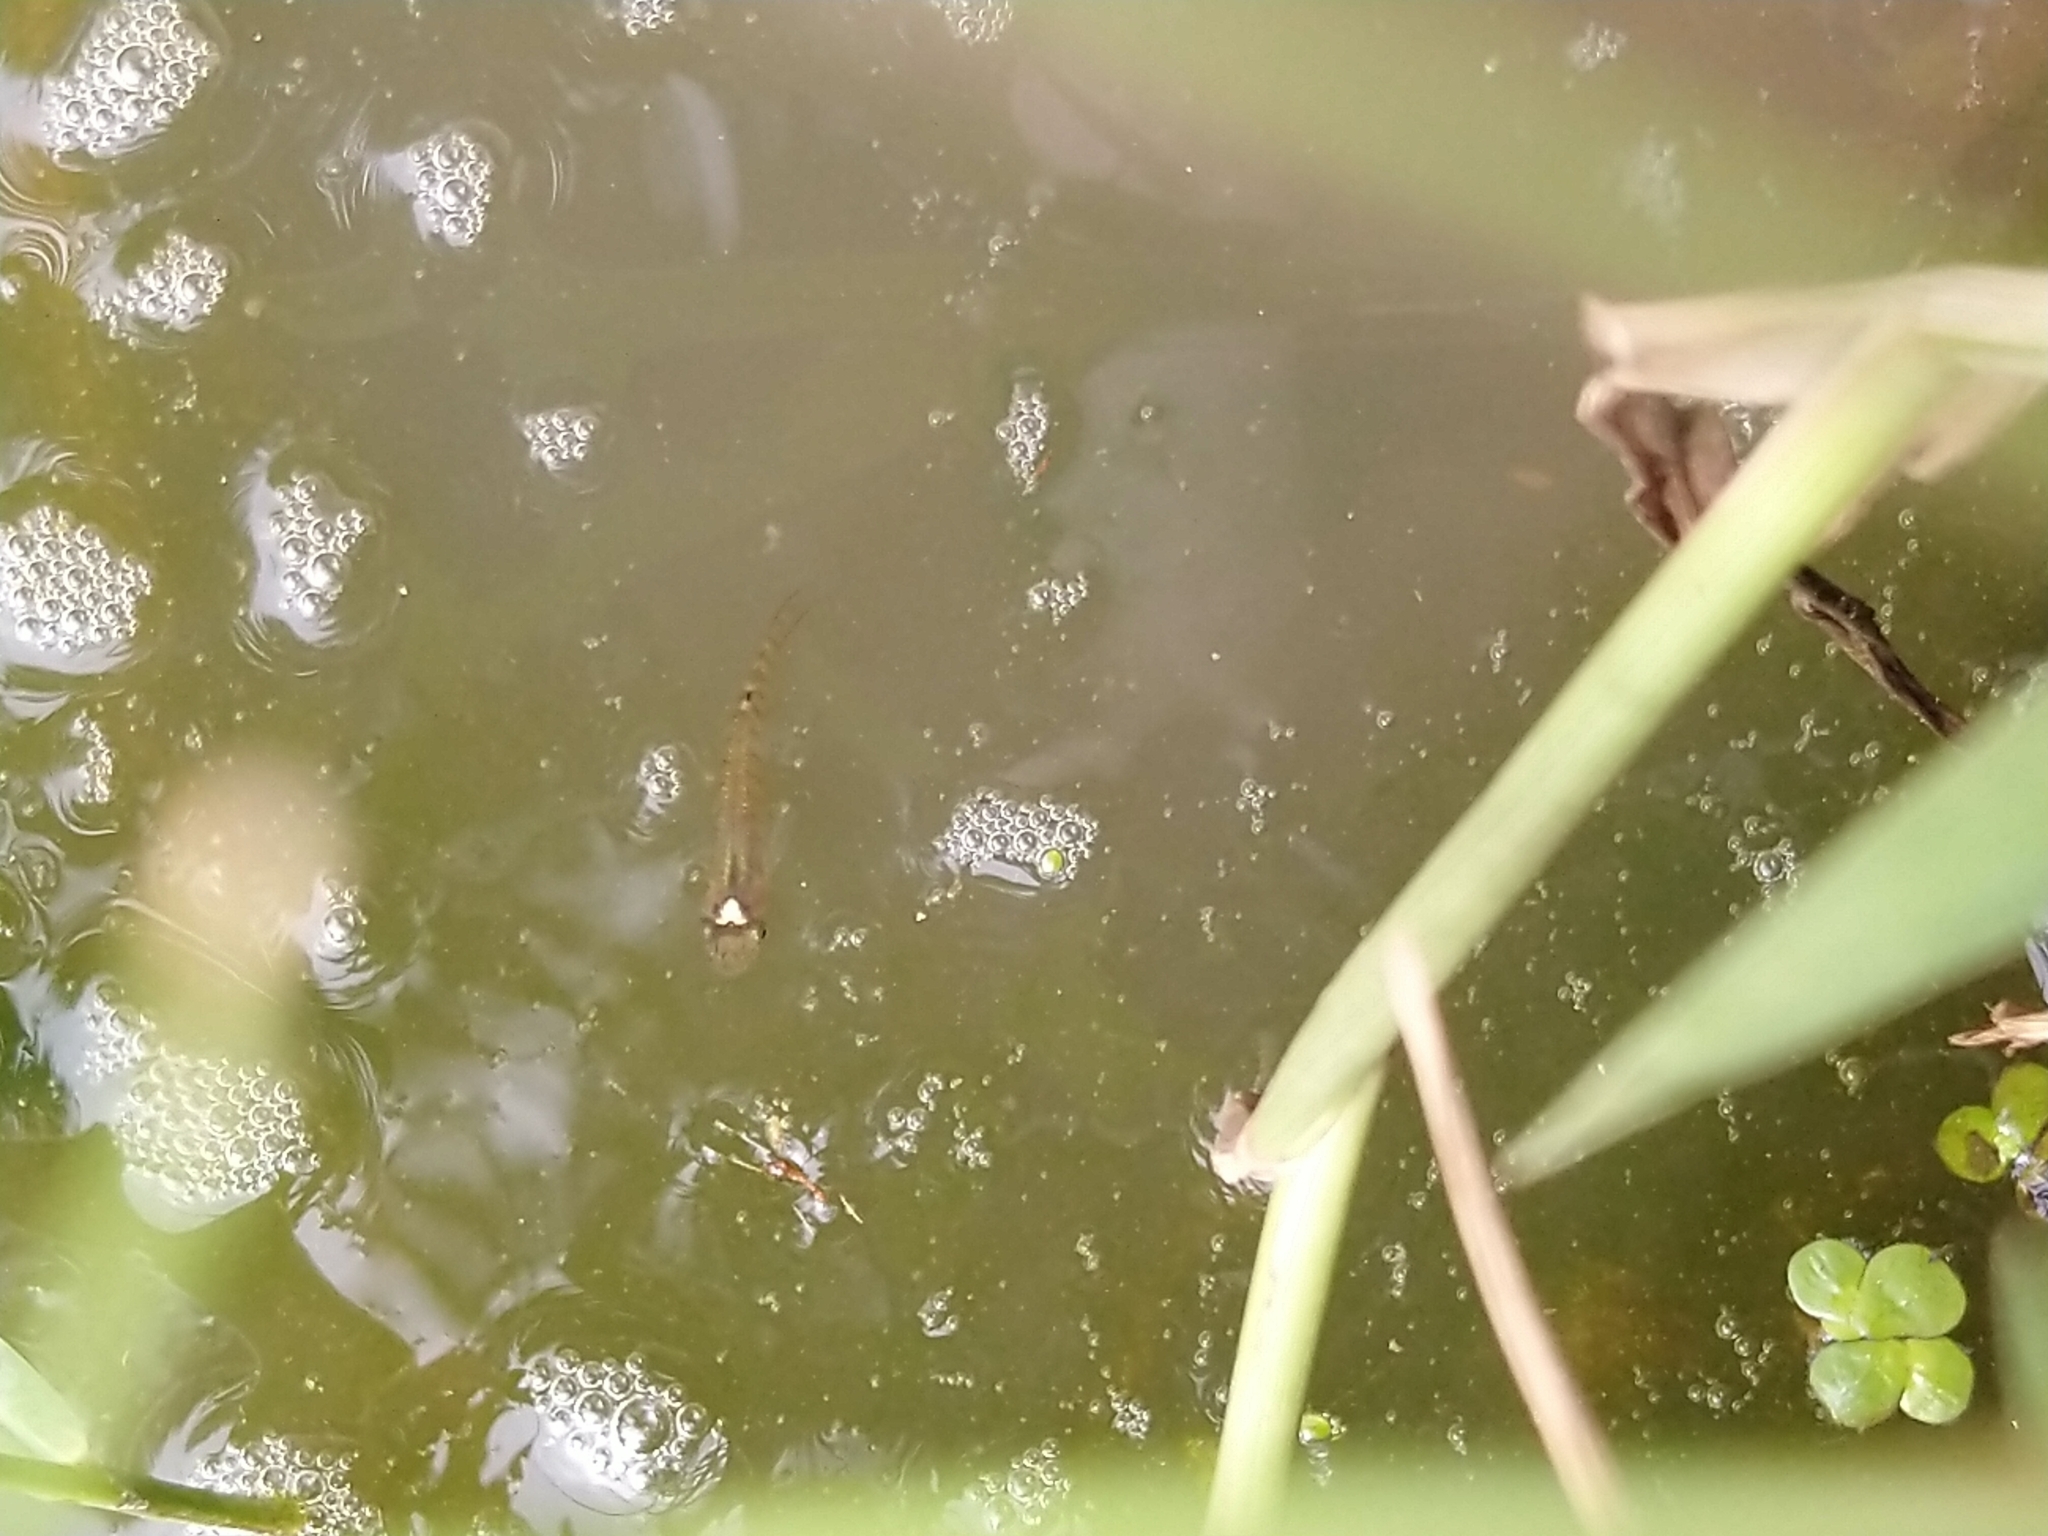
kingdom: Animalia
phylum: Chordata
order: Cyprinodontiformes
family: Aplocheilidae
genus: Aplocheilus
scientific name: Aplocheilus lineatus
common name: Striped panchax
